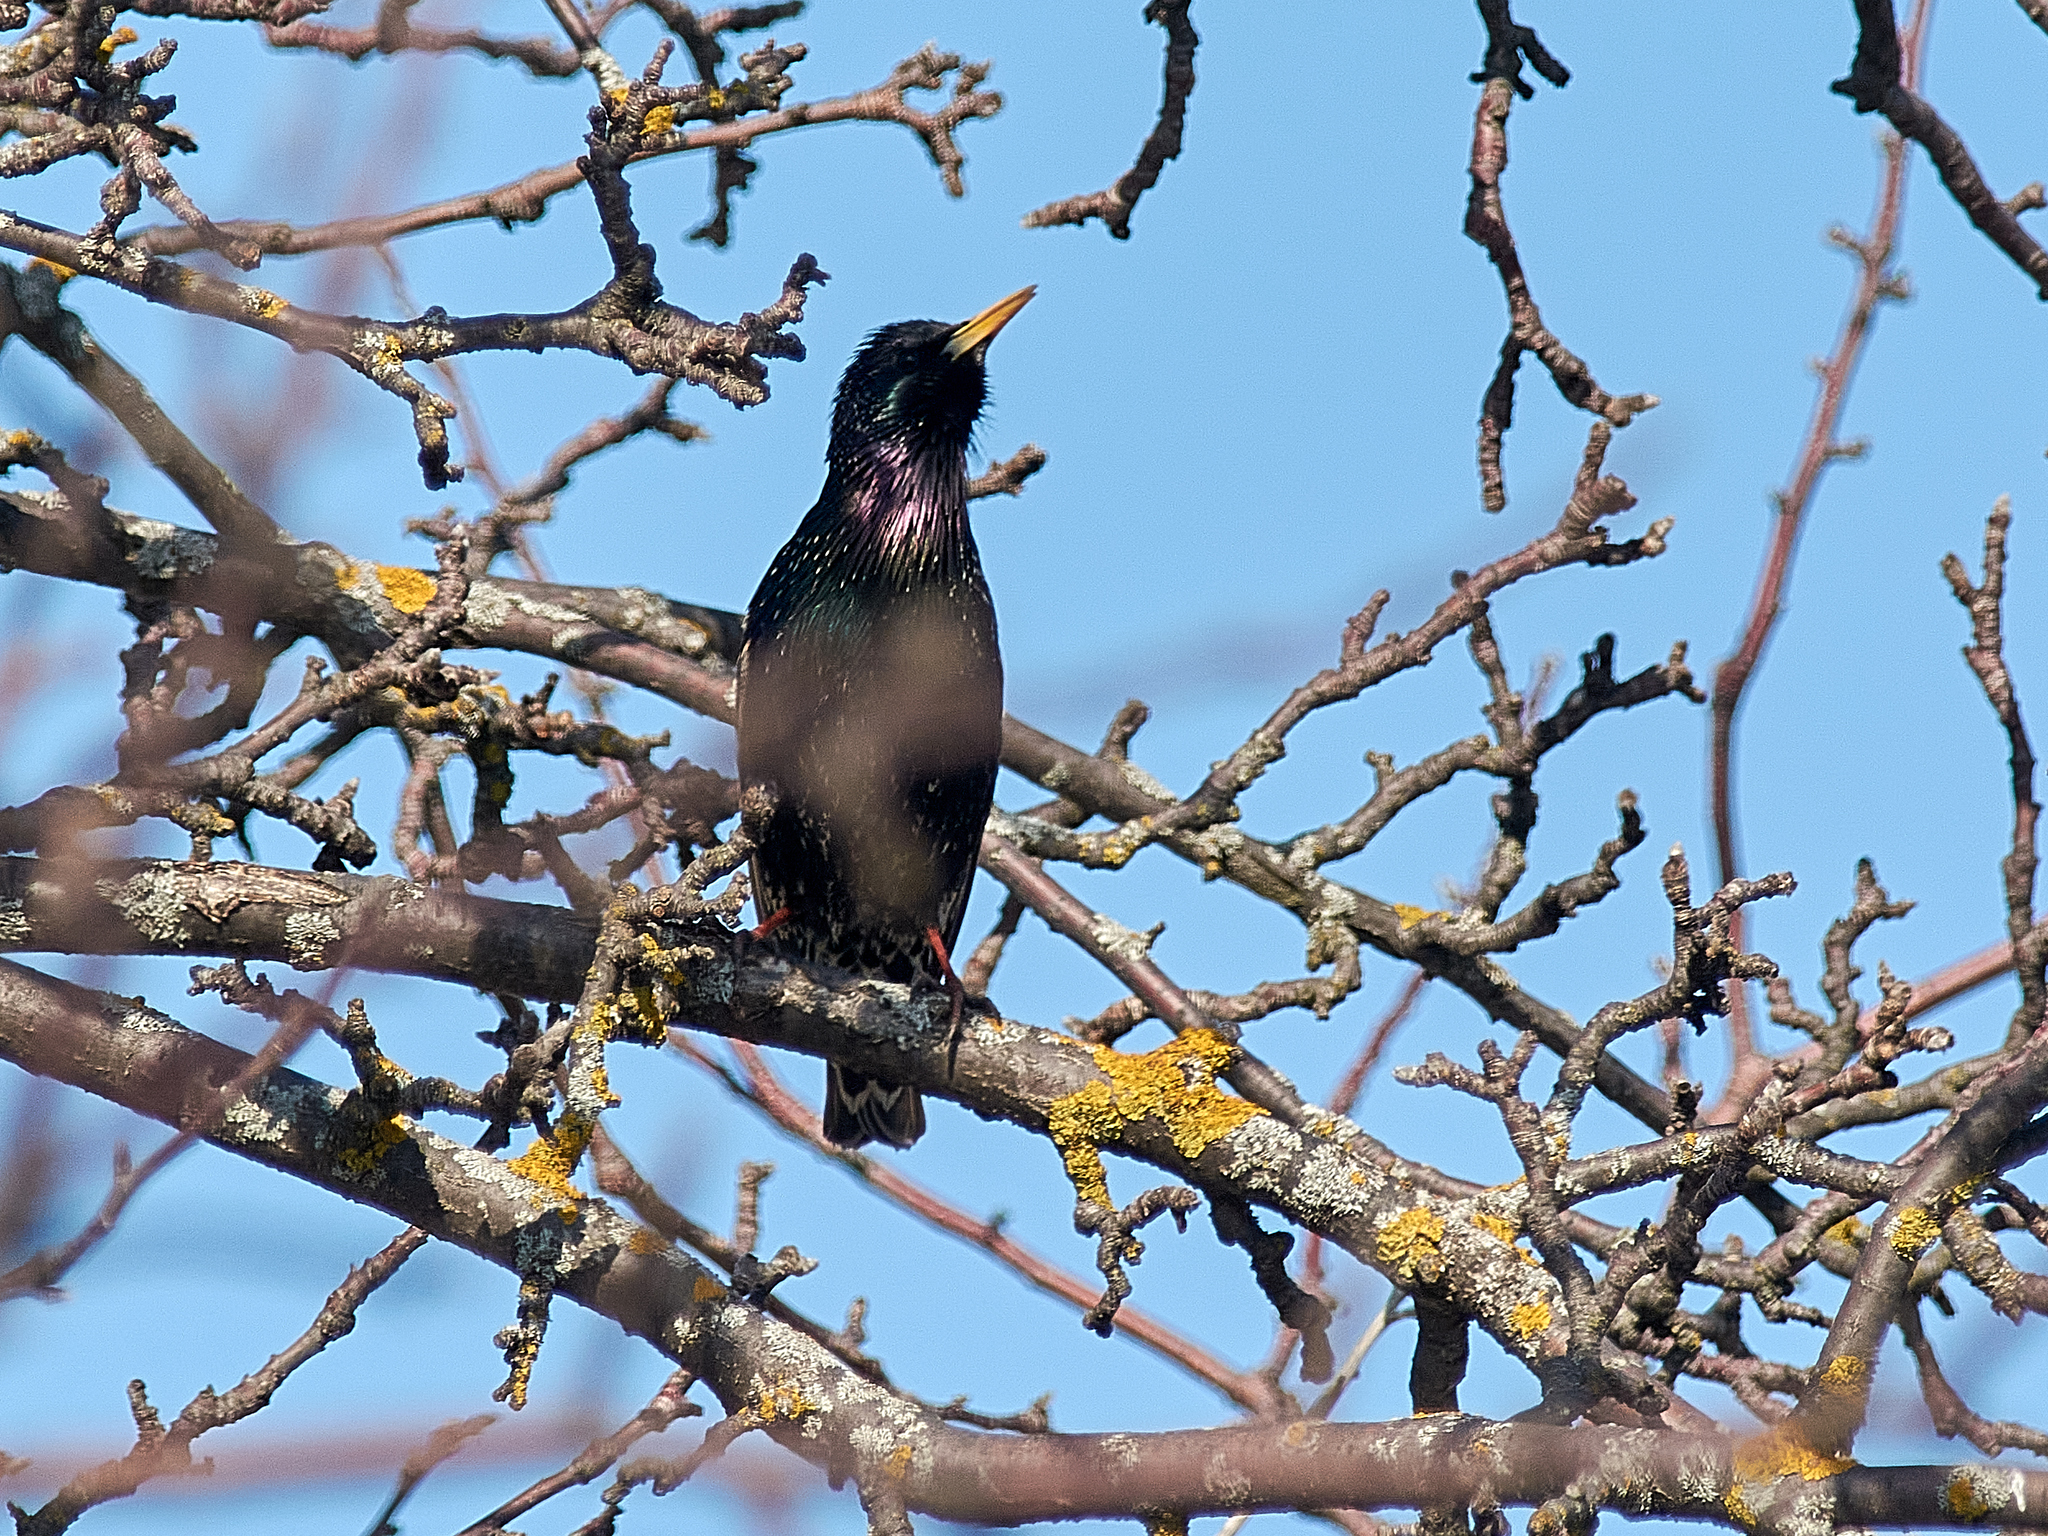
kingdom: Animalia
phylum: Chordata
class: Aves
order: Passeriformes
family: Sturnidae
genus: Sturnus
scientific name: Sturnus vulgaris
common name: Common starling
